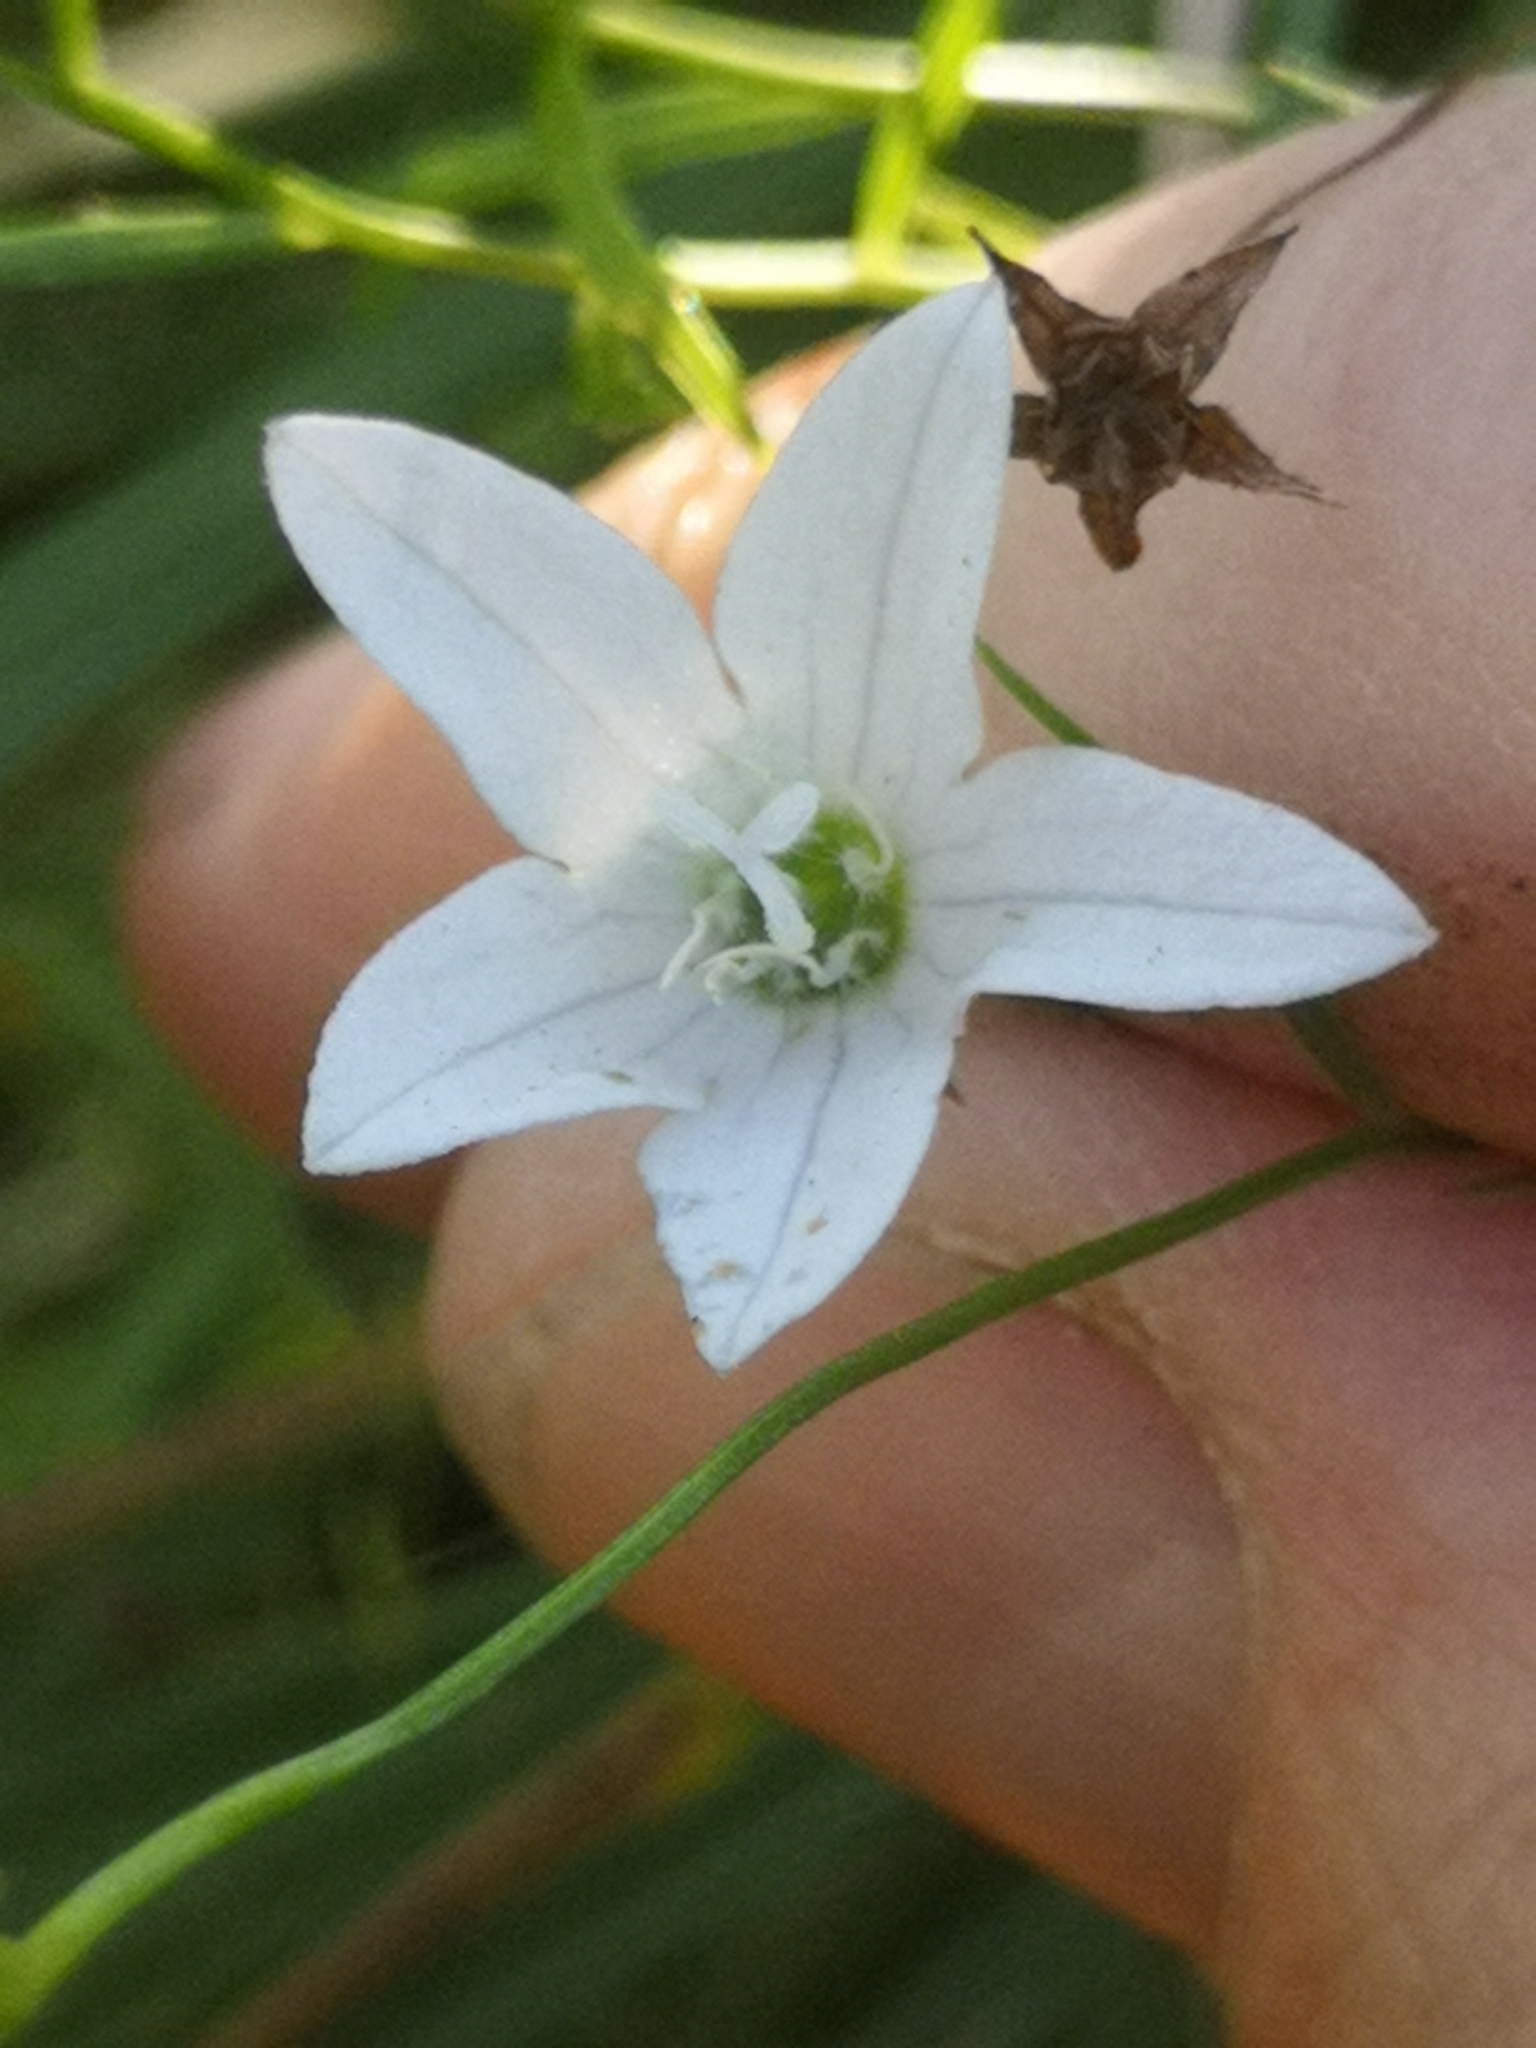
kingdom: Plantae
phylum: Tracheophyta
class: Magnoliopsida
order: Asterales
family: Campanulaceae
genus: Palustricodon
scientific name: Palustricodon aparinoides
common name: Bedstraw bellflower
